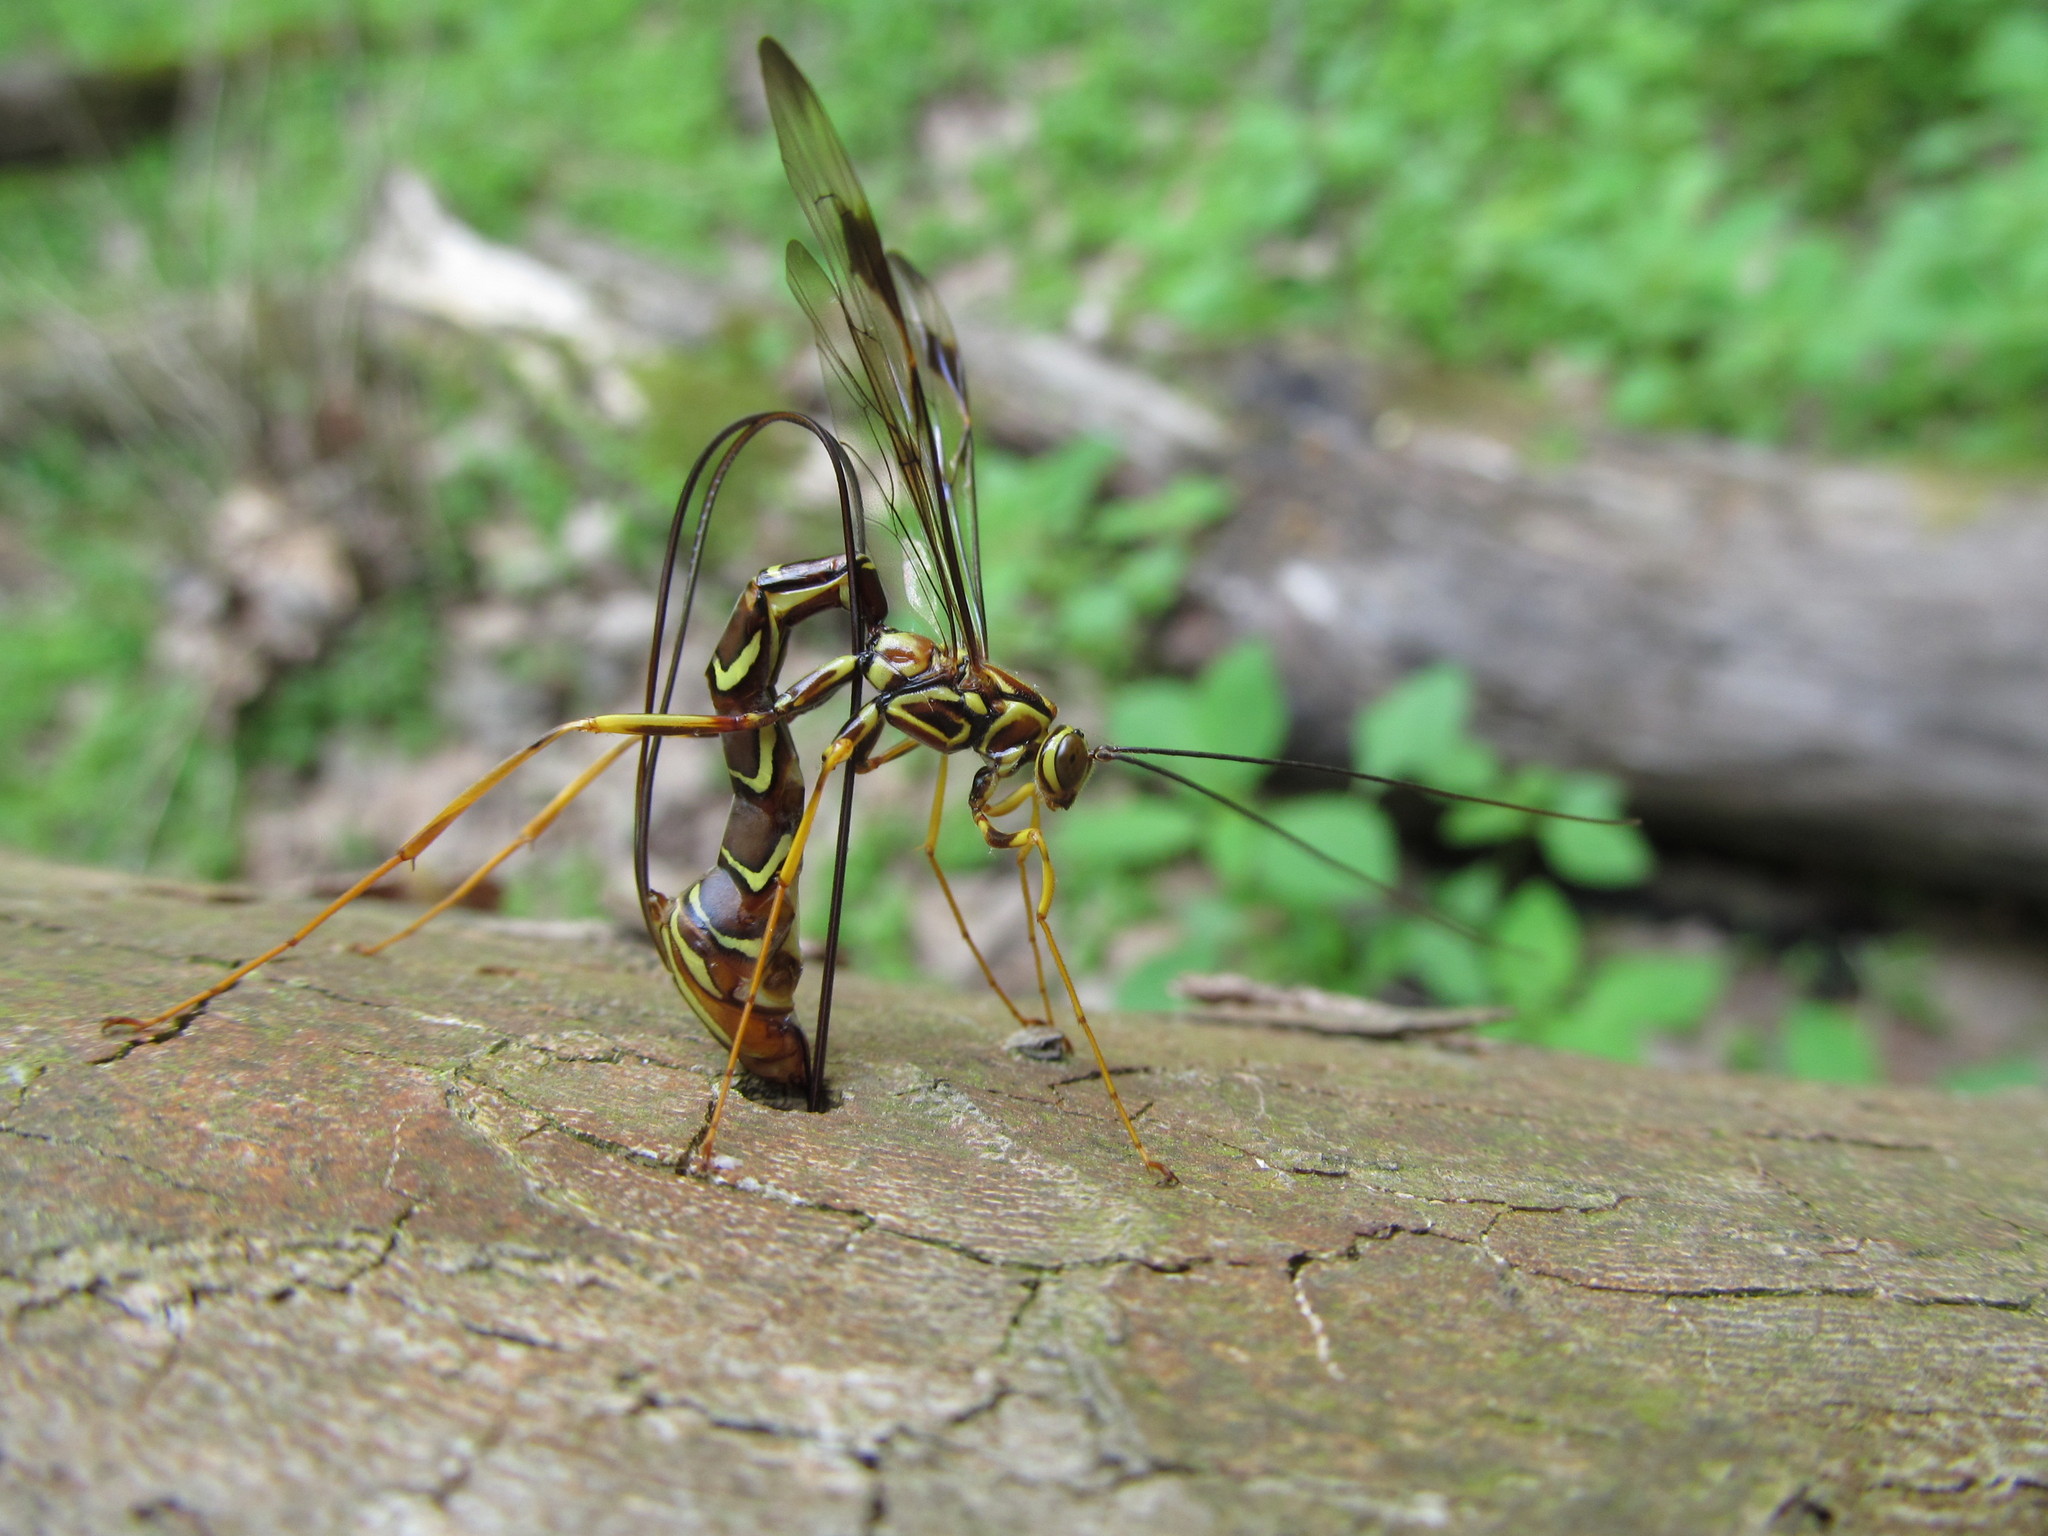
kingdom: Animalia
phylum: Arthropoda
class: Insecta
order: Hymenoptera
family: Ichneumonidae
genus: Megarhyssa
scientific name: Megarhyssa macrura
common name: Long-tailed giant ichneumonid wasp
